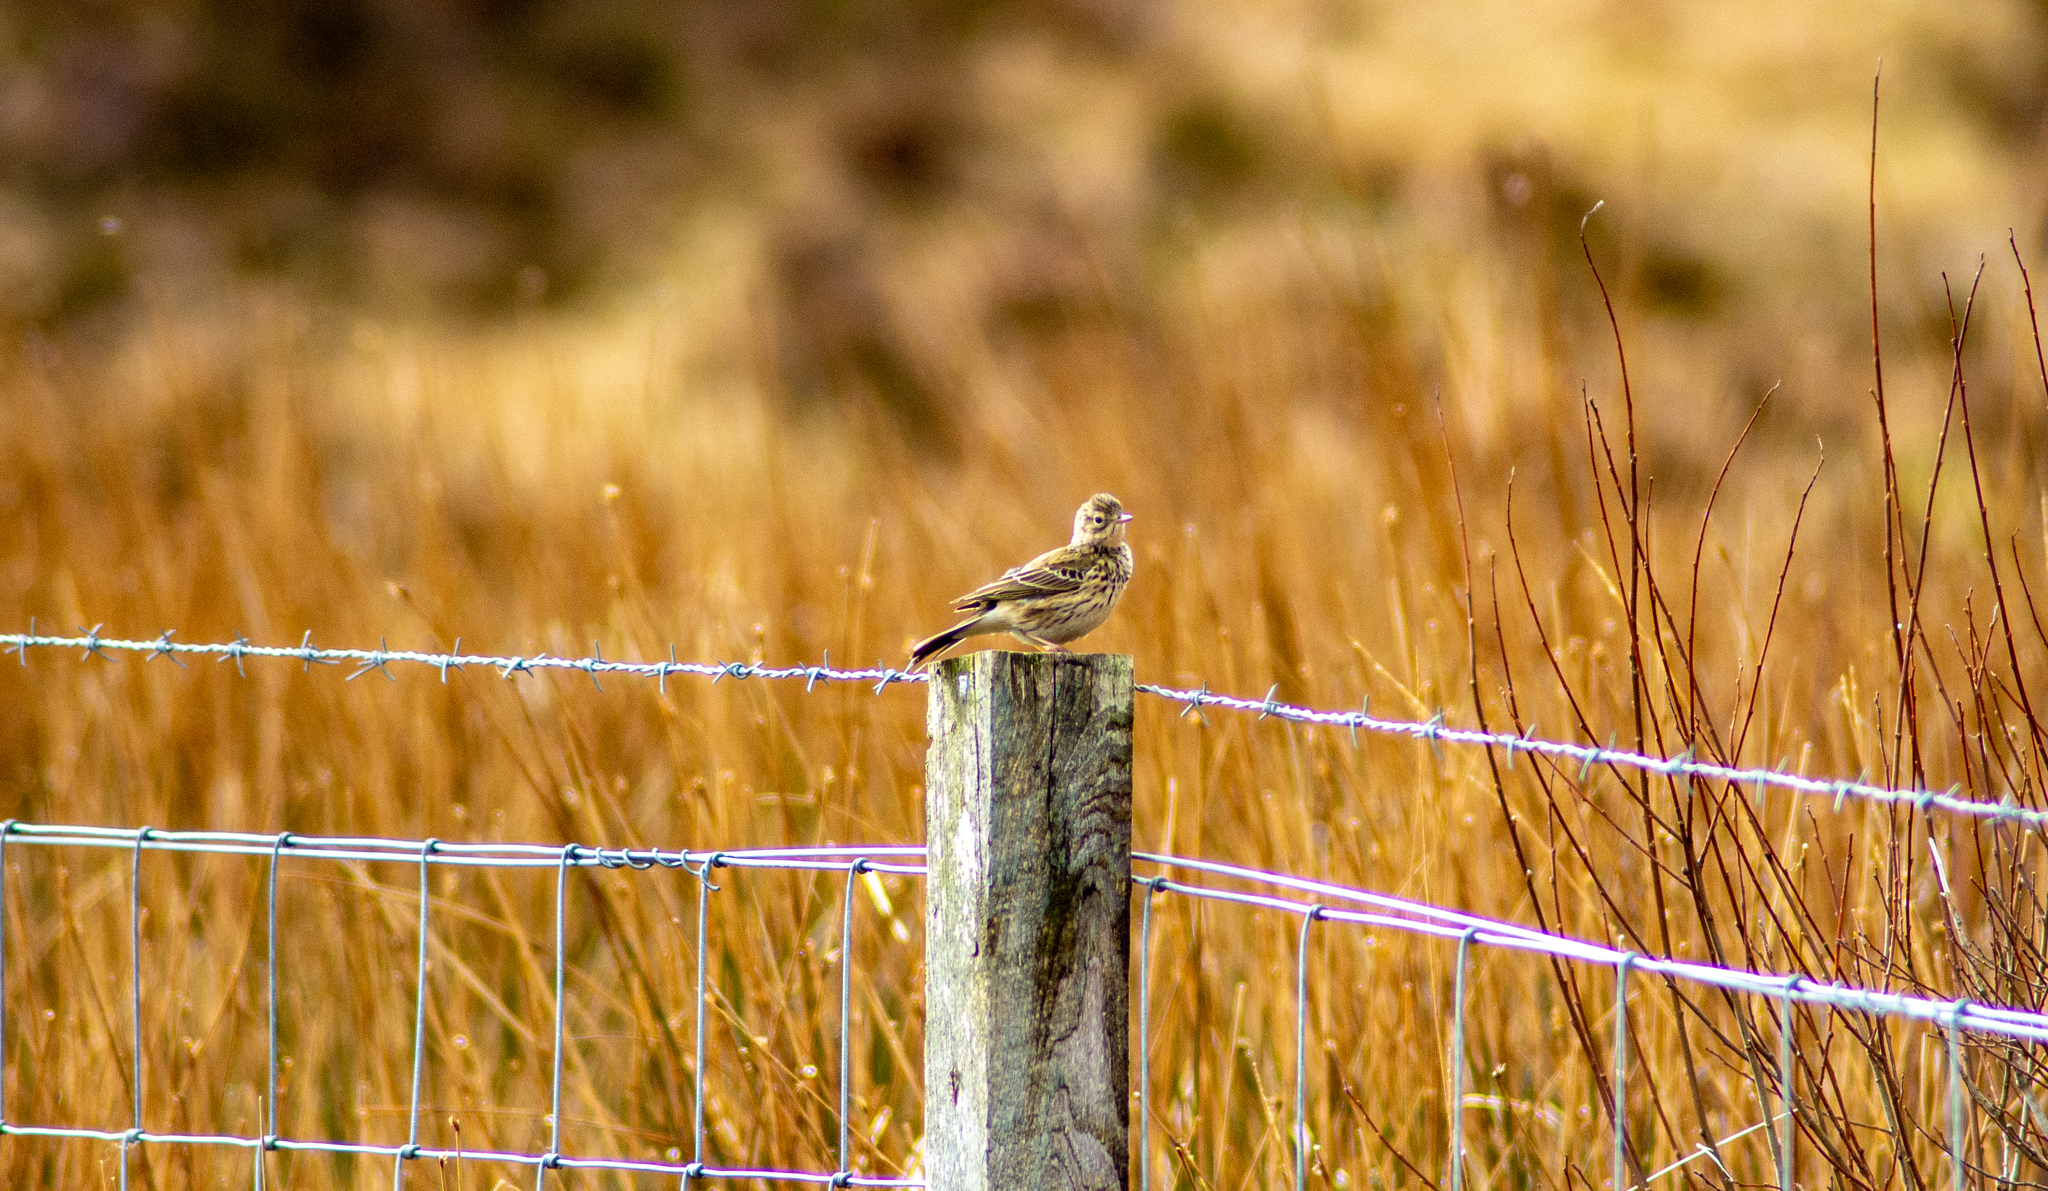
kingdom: Animalia
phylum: Chordata
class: Aves
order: Passeriformes
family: Alaudidae
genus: Alauda
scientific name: Alauda arvensis
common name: Eurasian skylark
